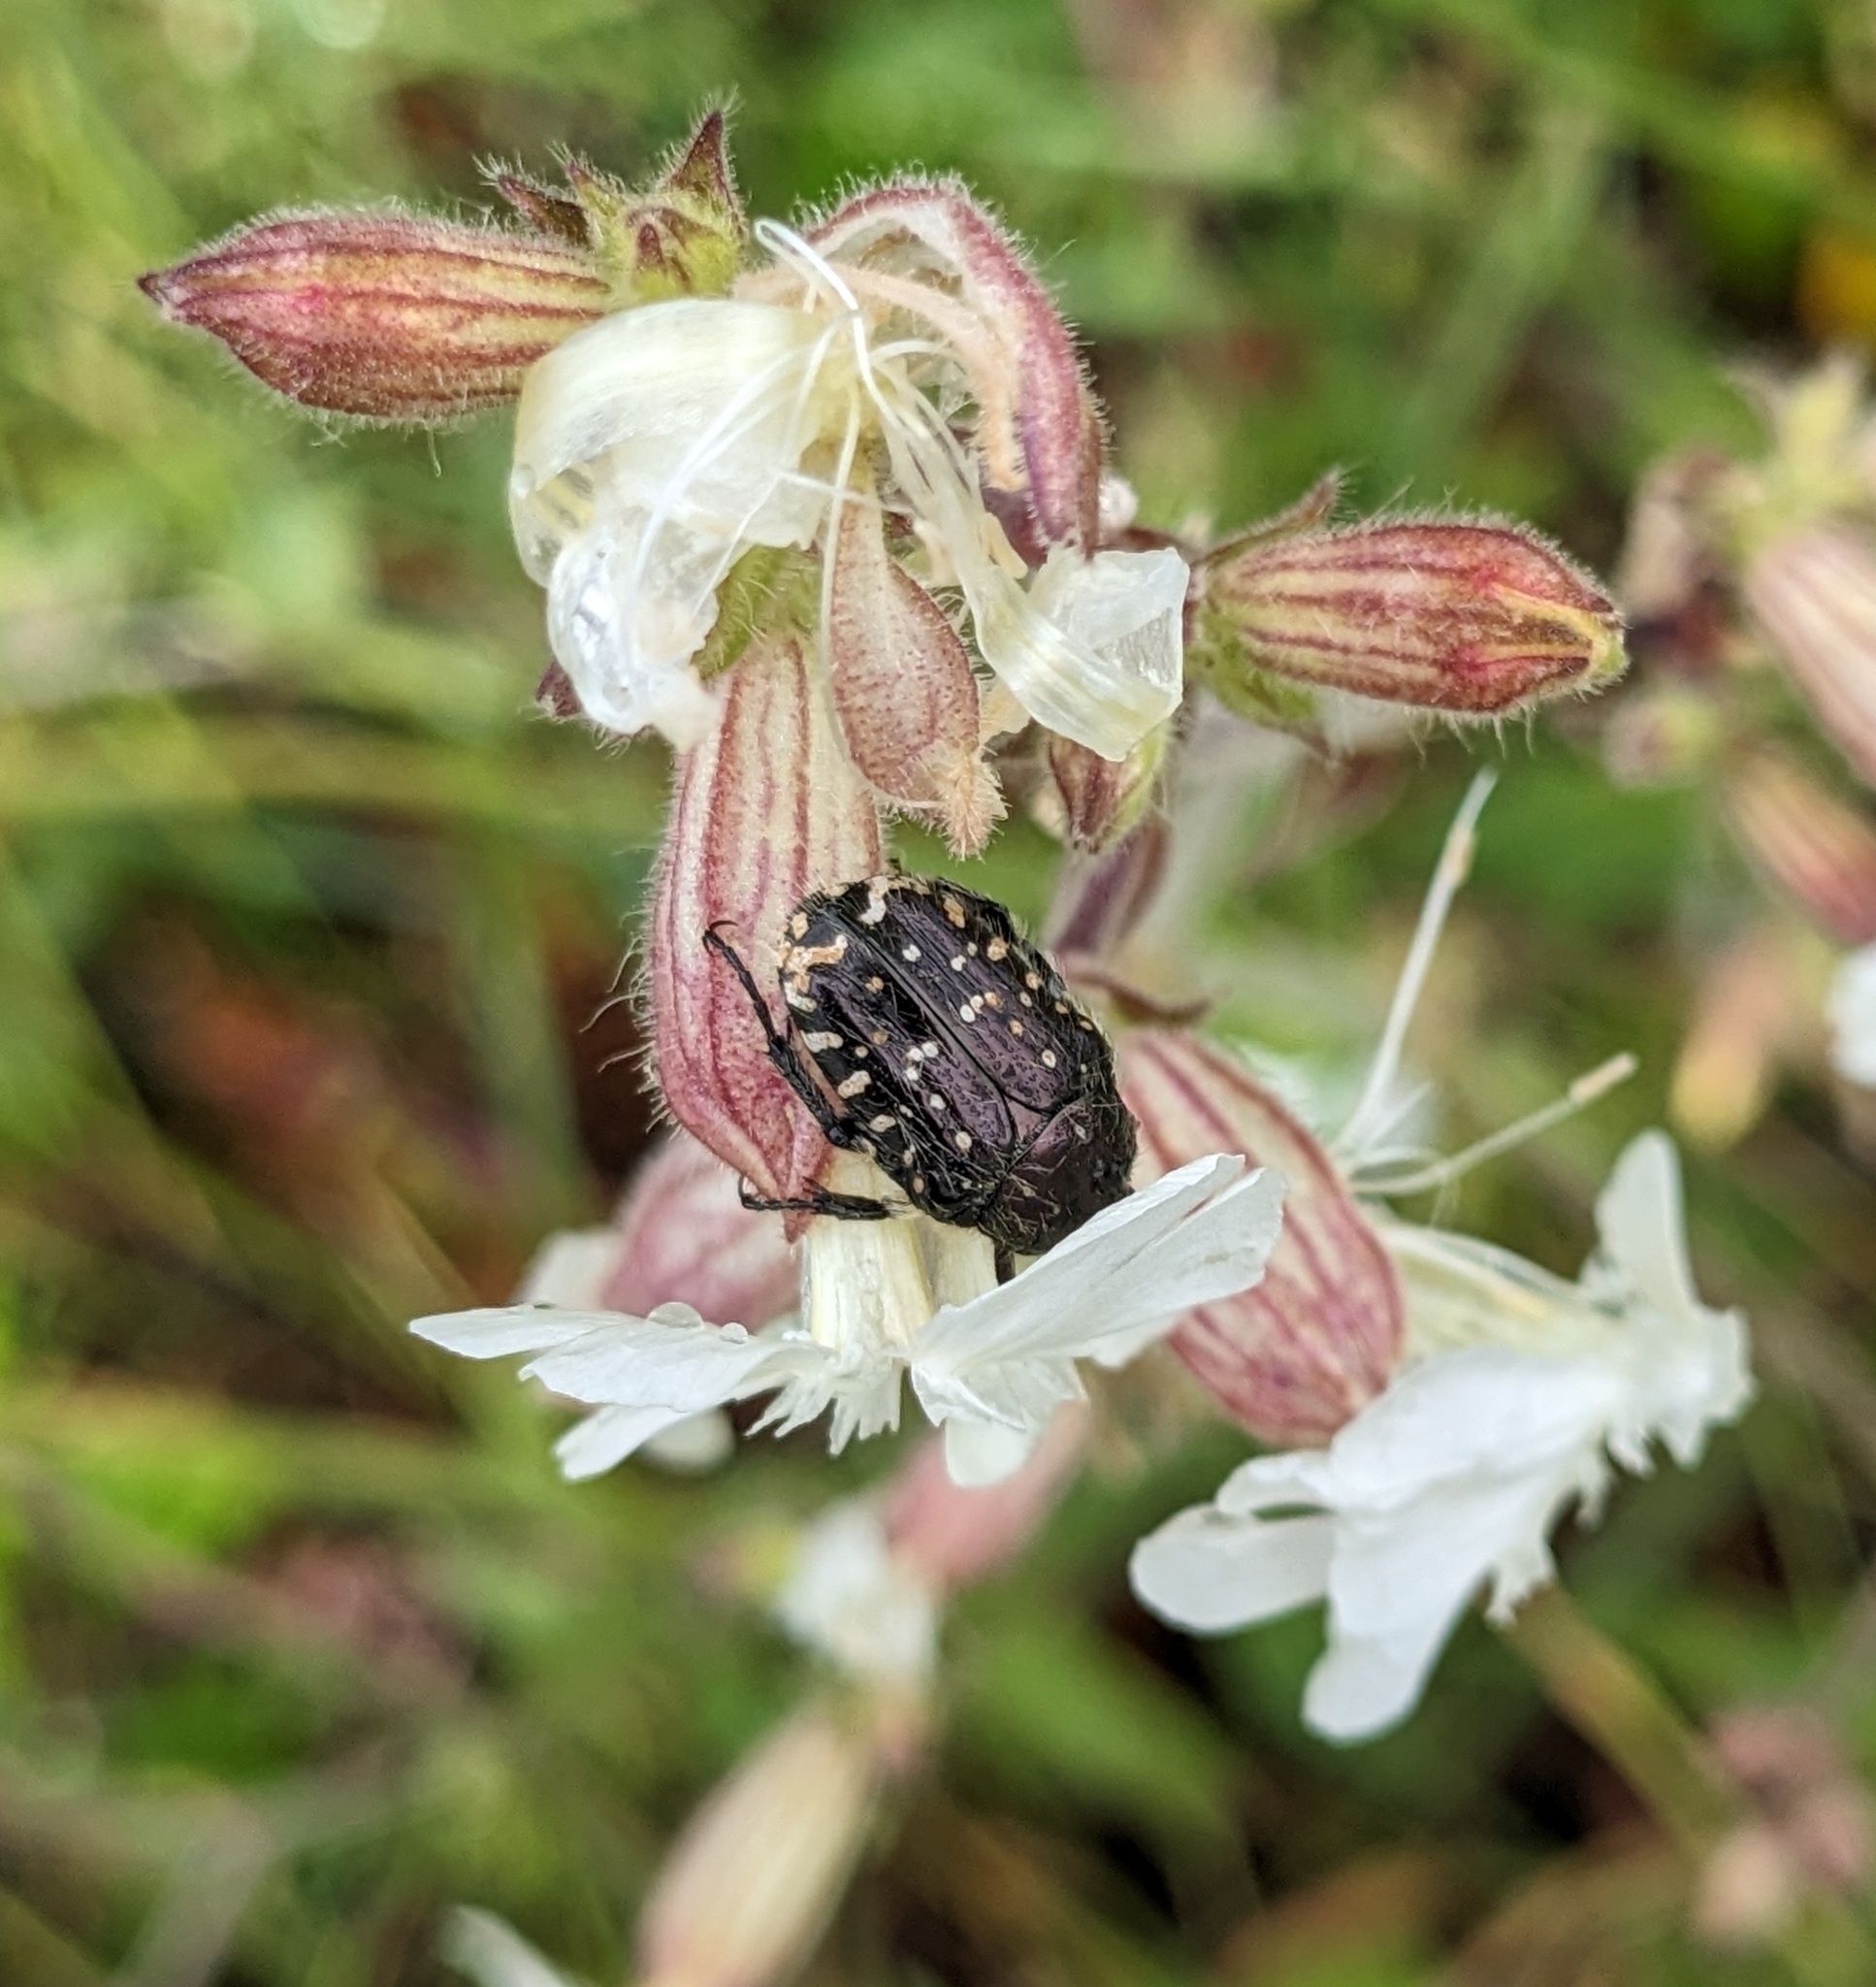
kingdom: Animalia
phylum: Arthropoda
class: Insecta
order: Coleoptera
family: Scarabaeidae
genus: Oxythyrea
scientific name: Oxythyrea funesta
